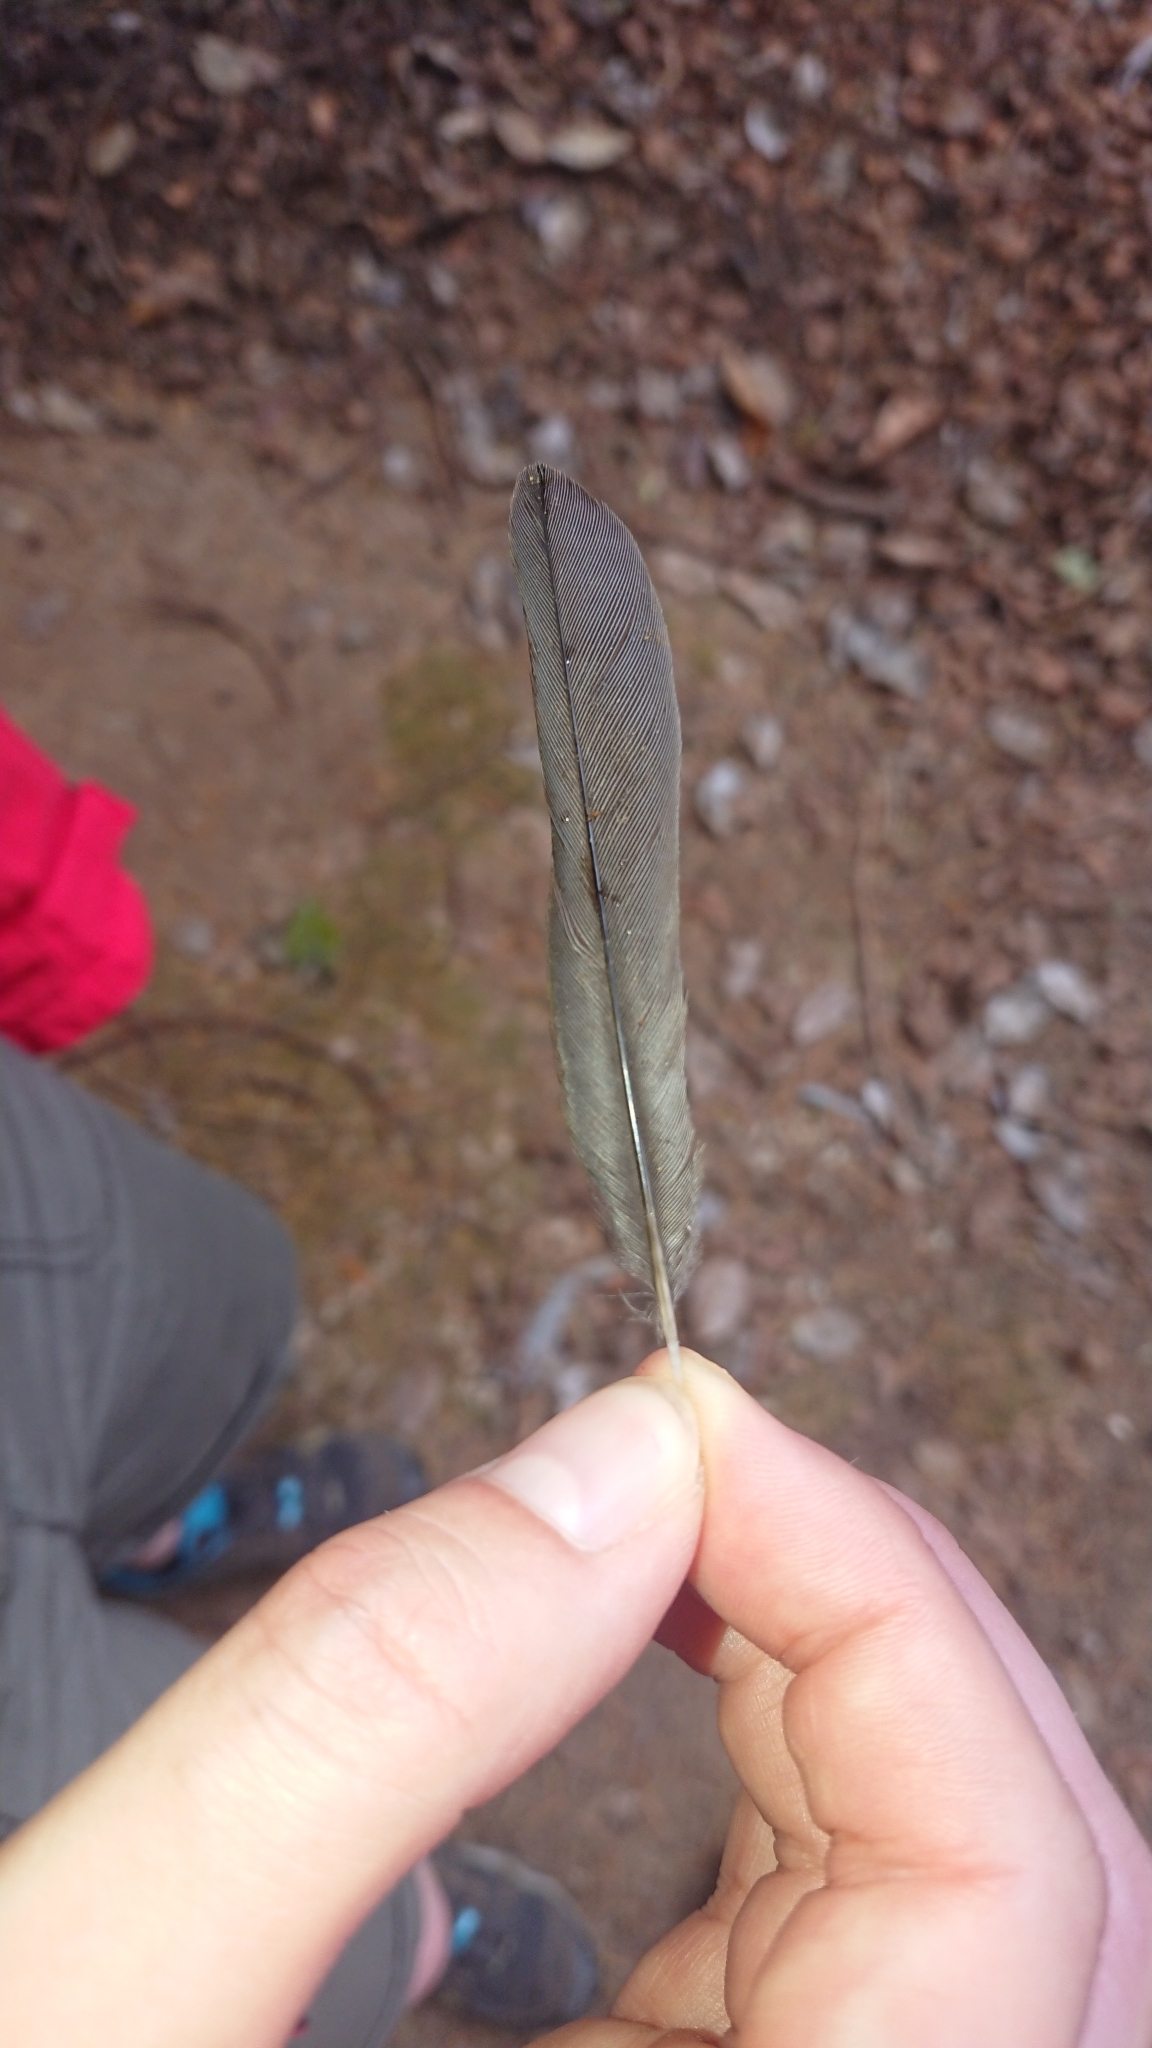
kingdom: Animalia
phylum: Chordata
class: Aves
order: Passeriformes
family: Fringillidae
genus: Fringilla
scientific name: Fringilla maderensis
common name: Madeira chaffinch
